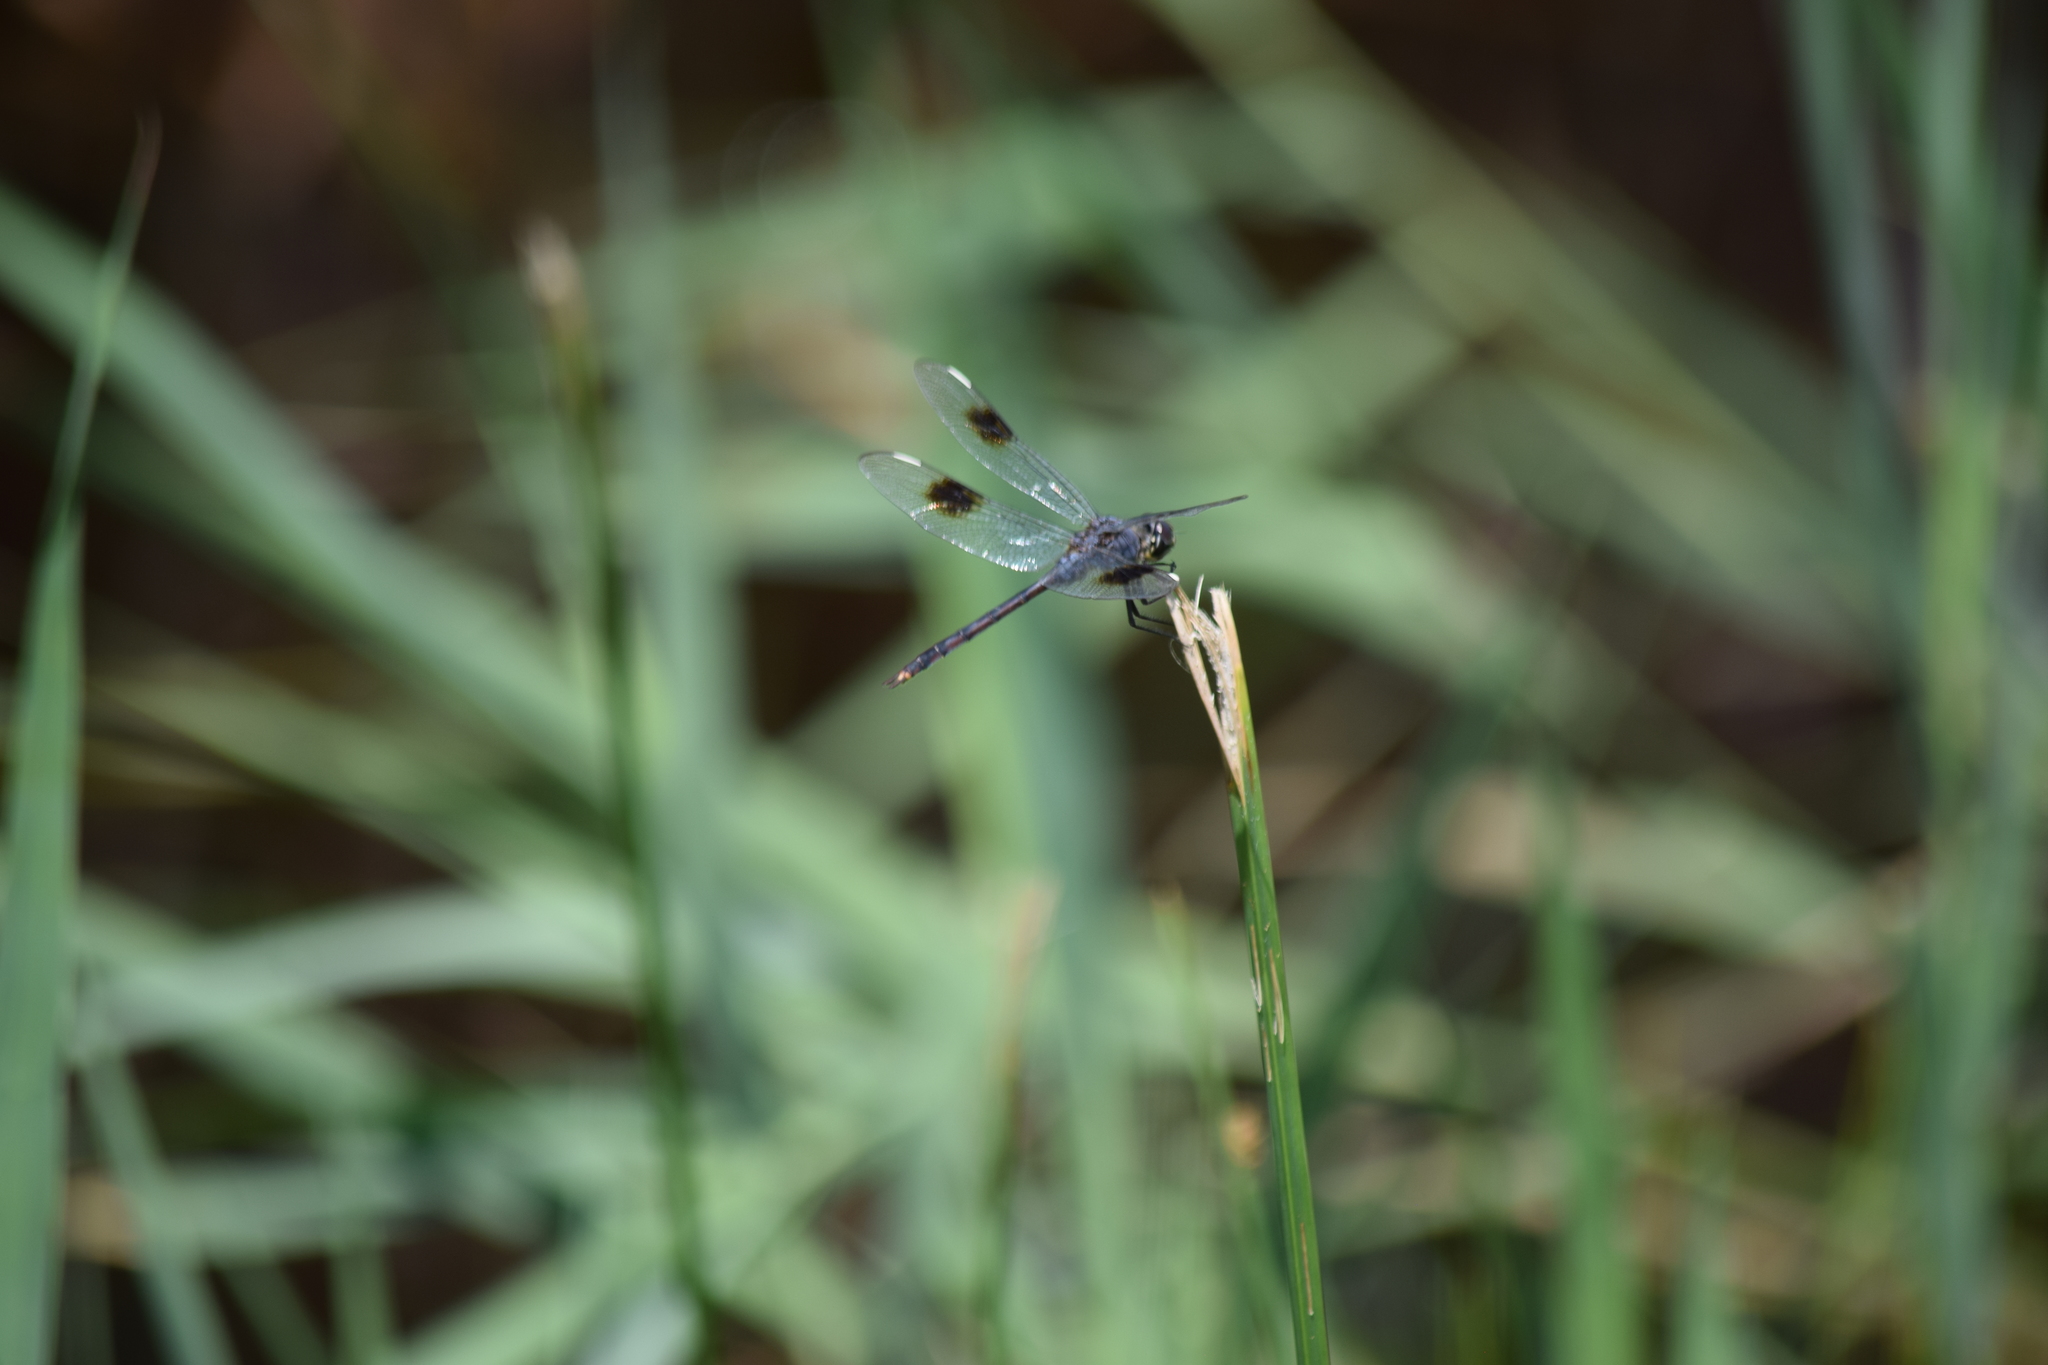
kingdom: Animalia
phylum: Arthropoda
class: Insecta
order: Odonata
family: Libellulidae
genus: Brachymesia
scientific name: Brachymesia gravida
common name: Four-spotted pennant
